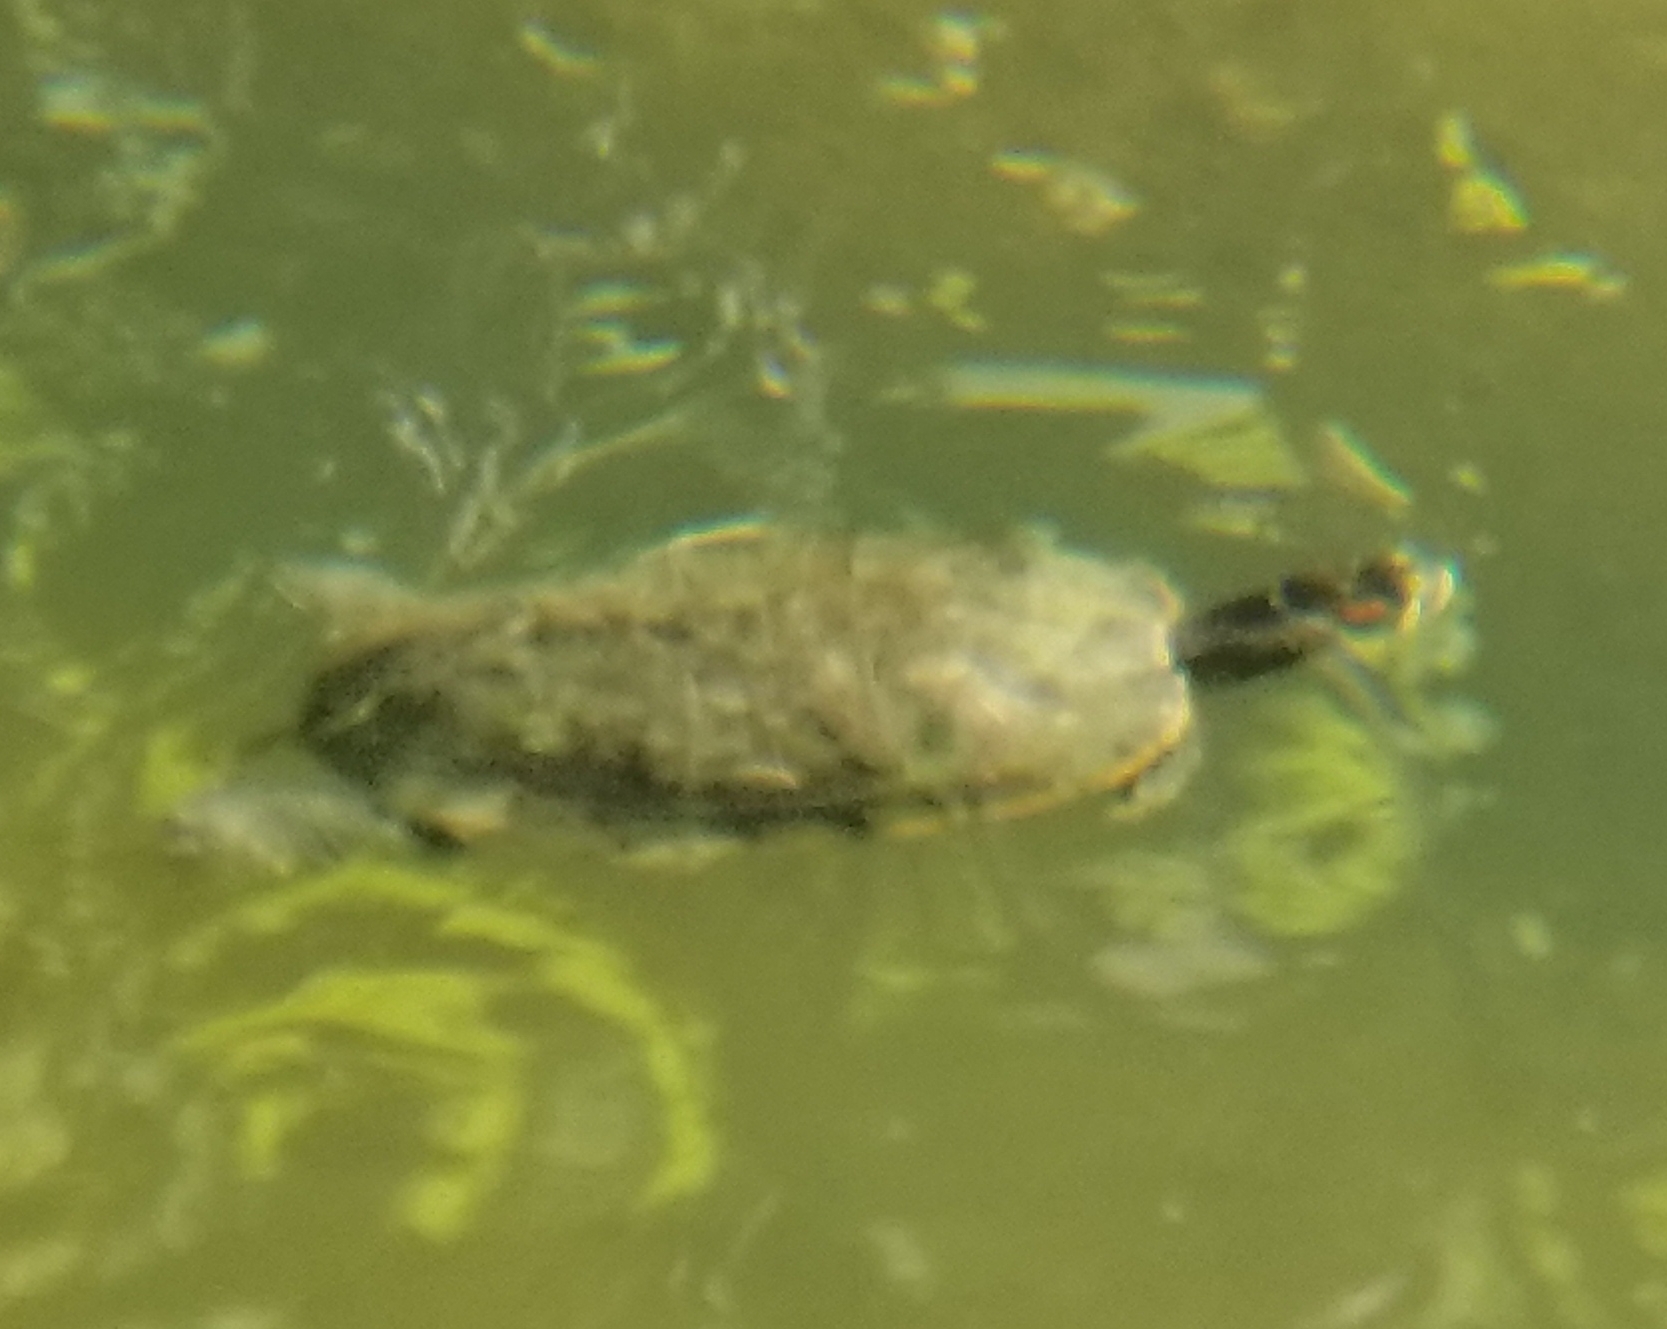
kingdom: Animalia
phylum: Chordata
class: Testudines
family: Emydidae
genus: Trachemys
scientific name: Trachemys scripta
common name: Slider
